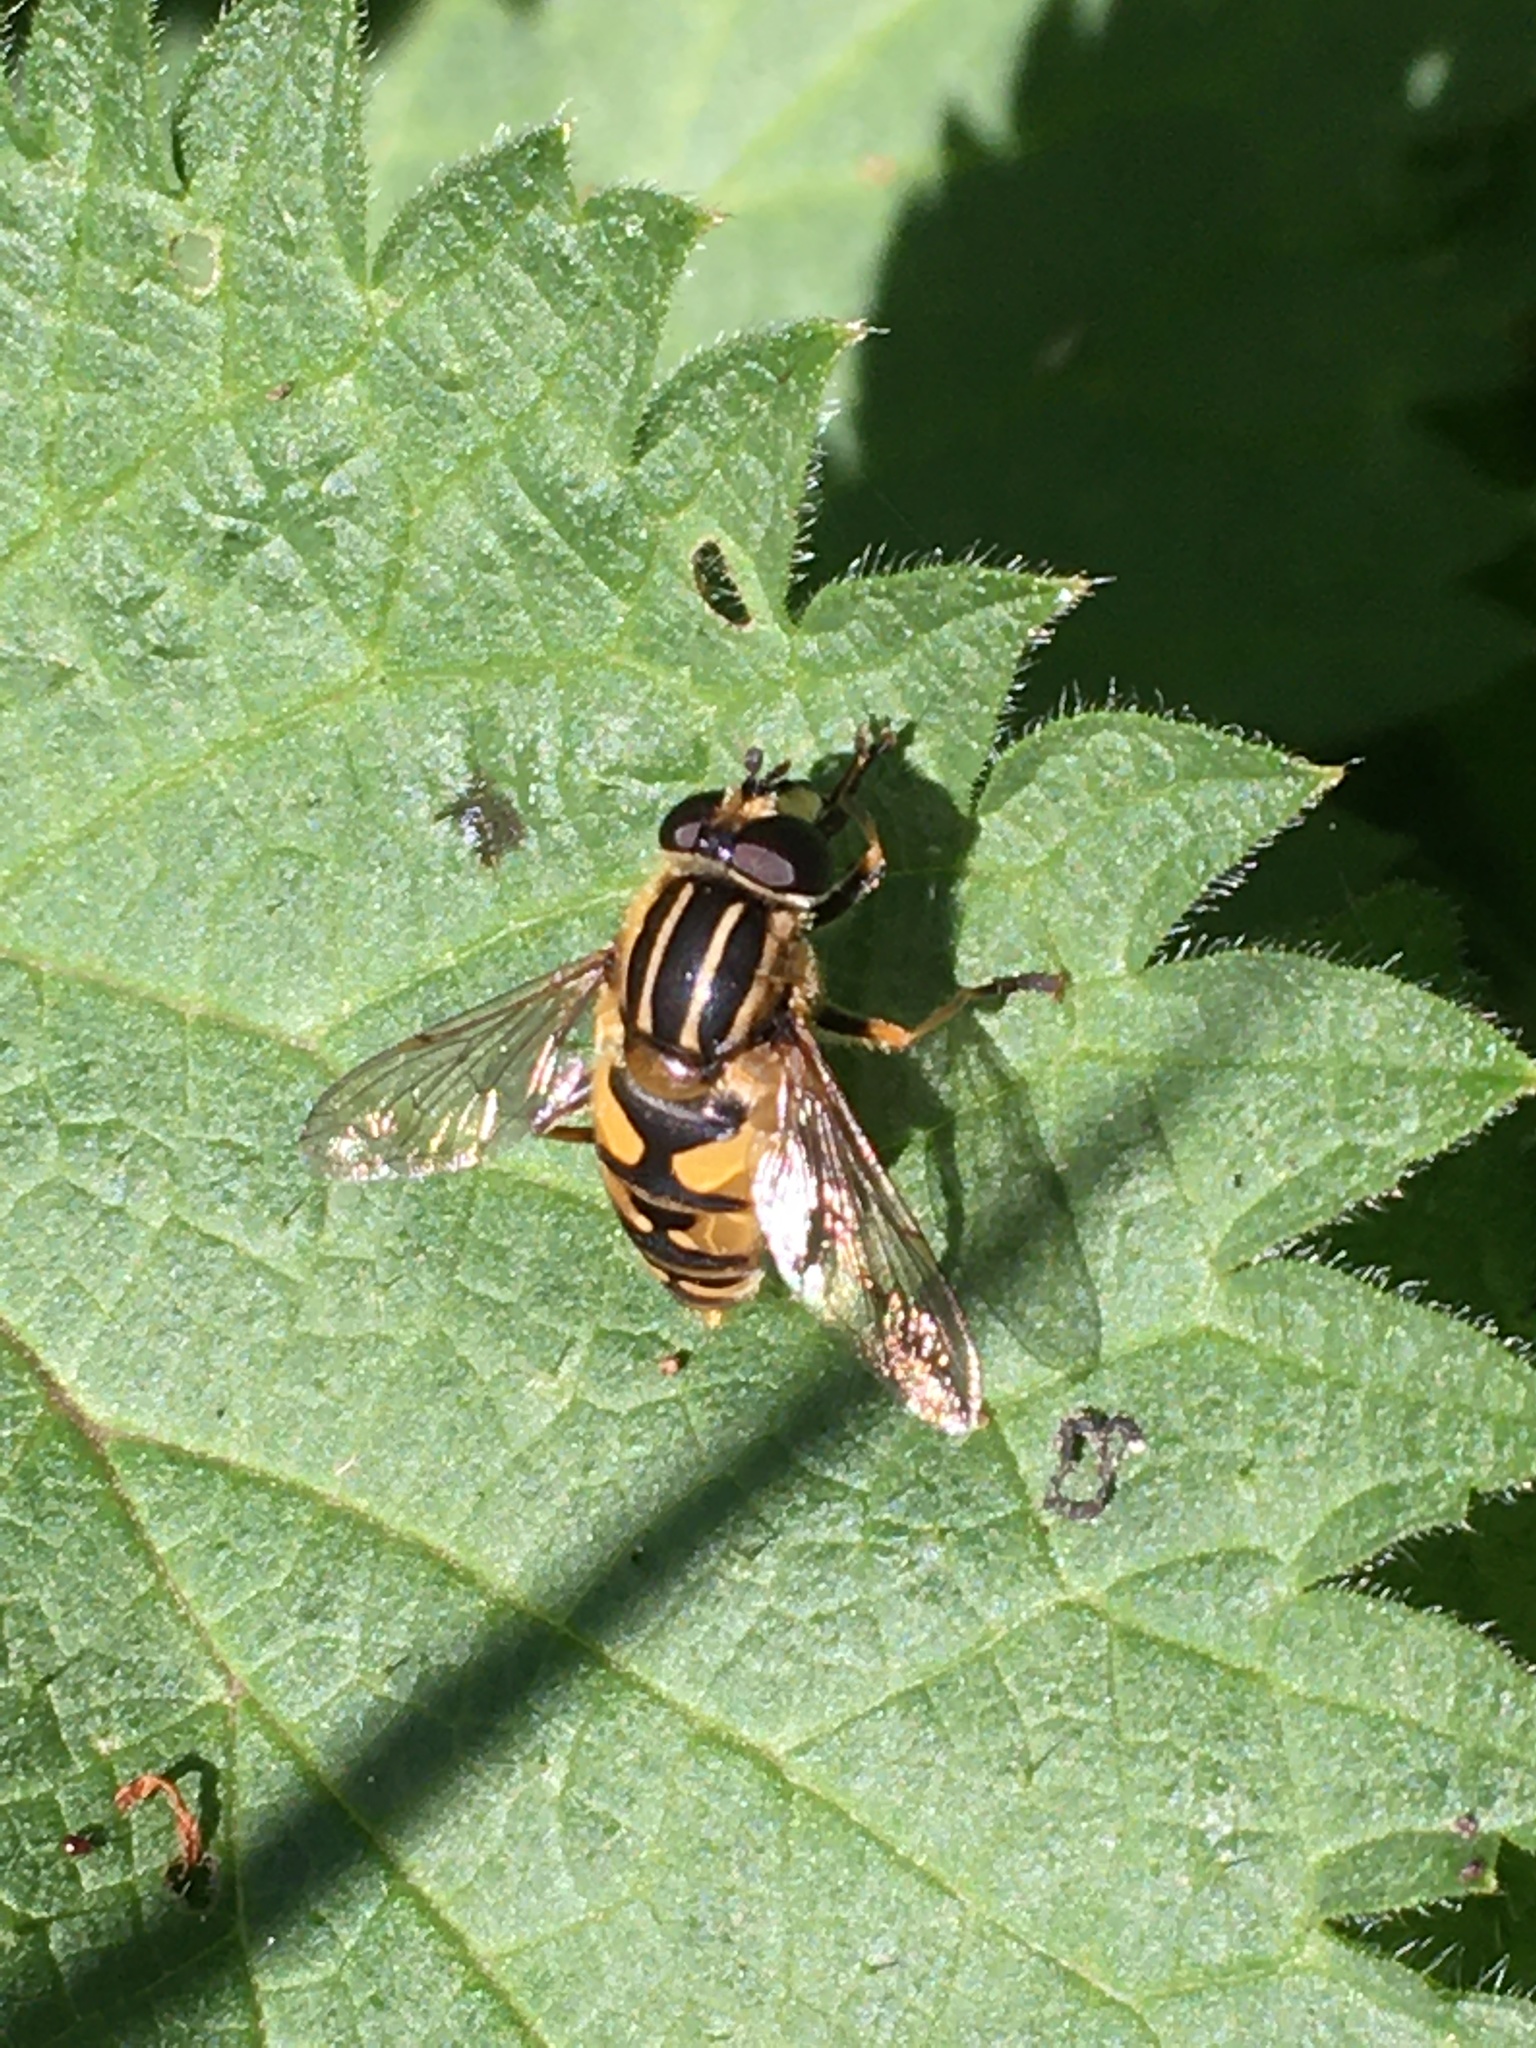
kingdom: Animalia
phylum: Arthropoda
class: Insecta
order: Diptera
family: Syrphidae
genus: Helophilus
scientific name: Helophilus pendulus
